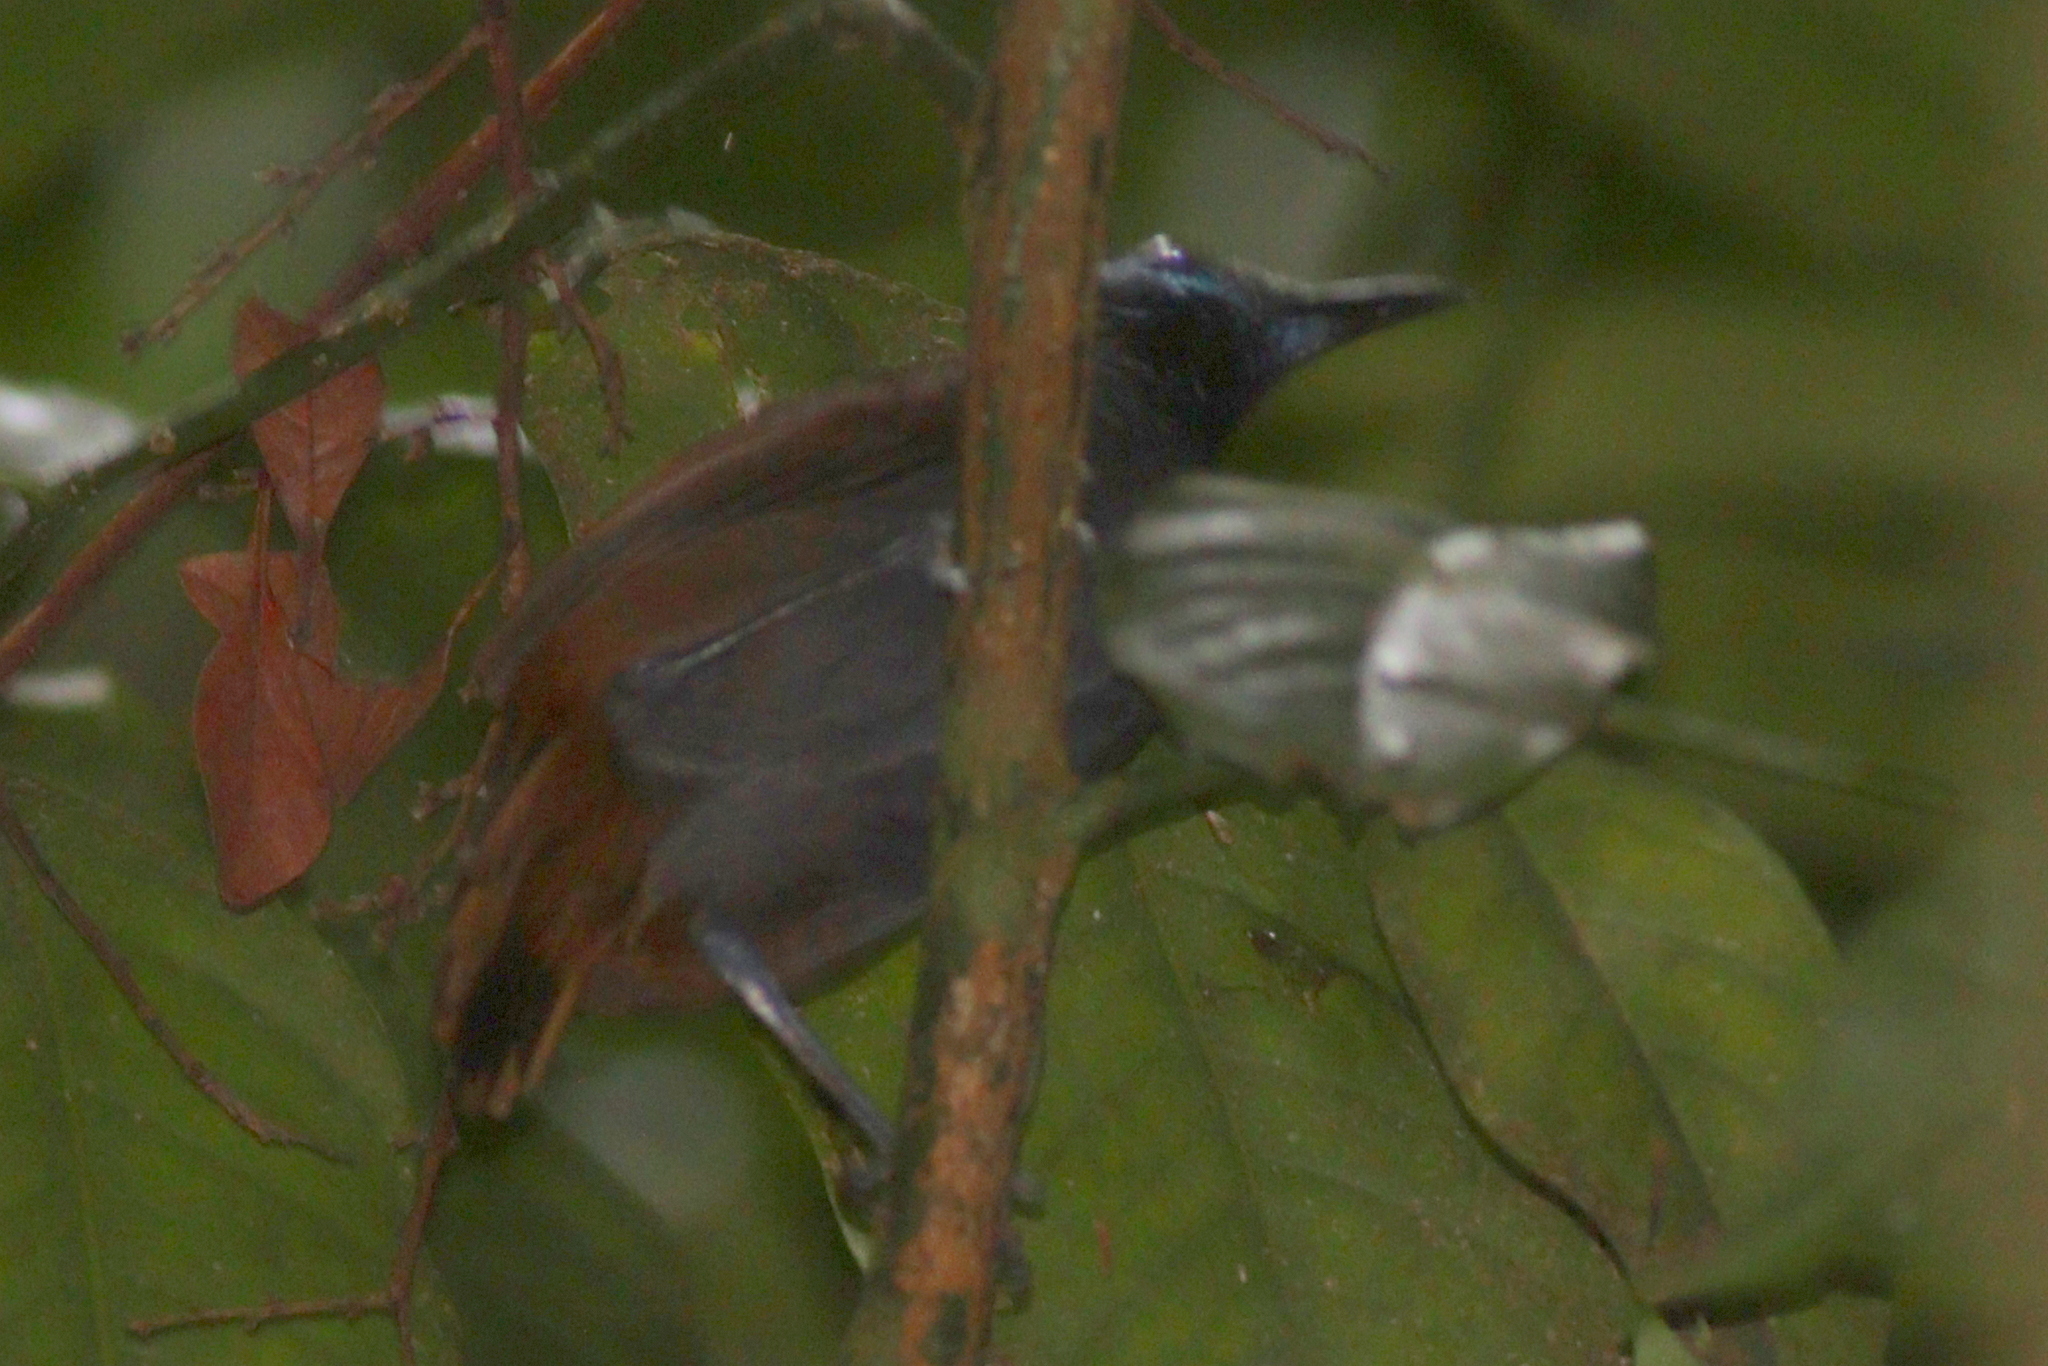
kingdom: Animalia
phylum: Chordata
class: Aves
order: Passeriformes
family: Thamnophilidae
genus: Myrmeciza
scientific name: Myrmeciza exsul
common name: Chestnut-backed antbird
